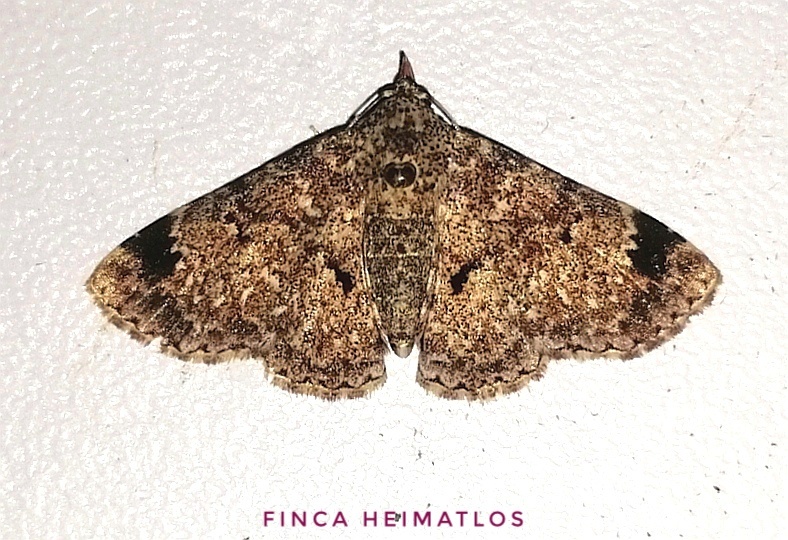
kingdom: Animalia
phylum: Arthropoda
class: Insecta
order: Lepidoptera
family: Erebidae
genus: Metalectra
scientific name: Metalectra
